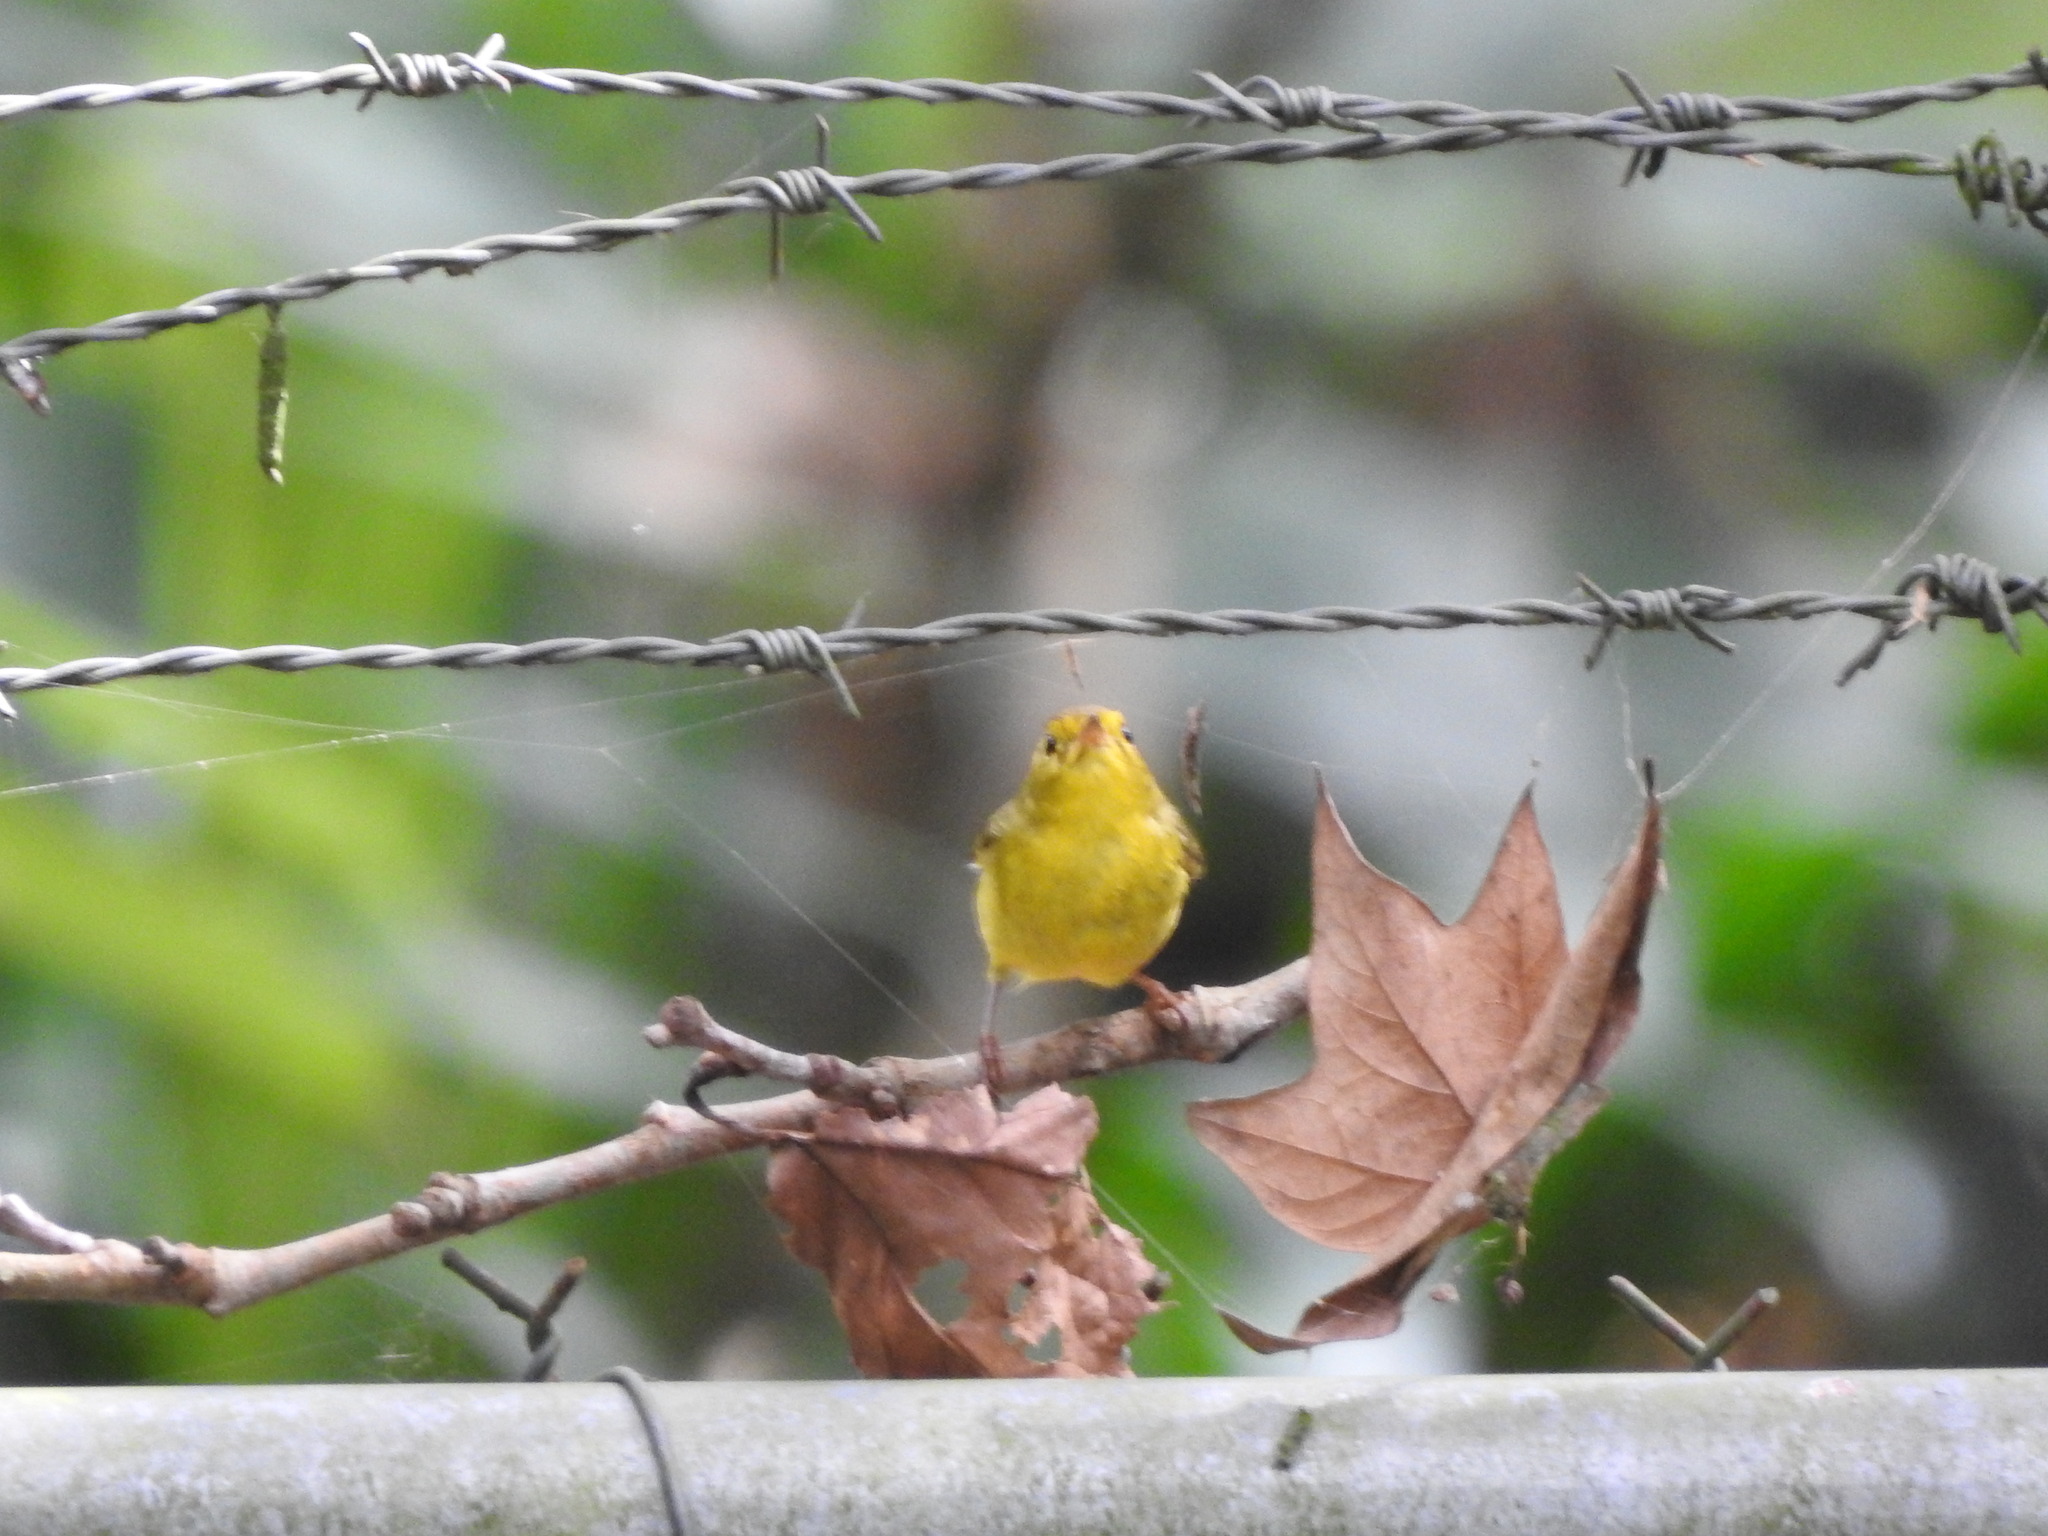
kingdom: Animalia
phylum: Chordata
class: Aves
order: Passeriformes
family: Parulidae
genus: Cardellina
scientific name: Cardellina pusilla
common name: Wilson's warbler
